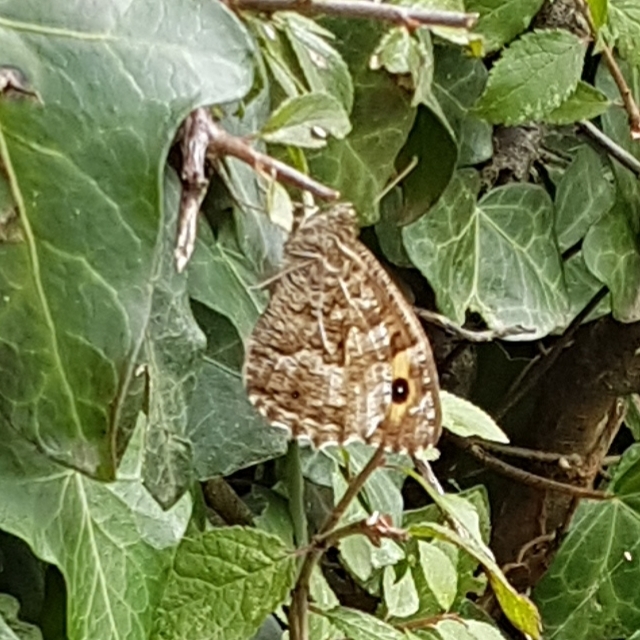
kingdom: Animalia
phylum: Arthropoda
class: Insecta
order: Lepidoptera
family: Nymphalidae
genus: Hipparchia
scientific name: Hipparchia semele
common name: Grayling
